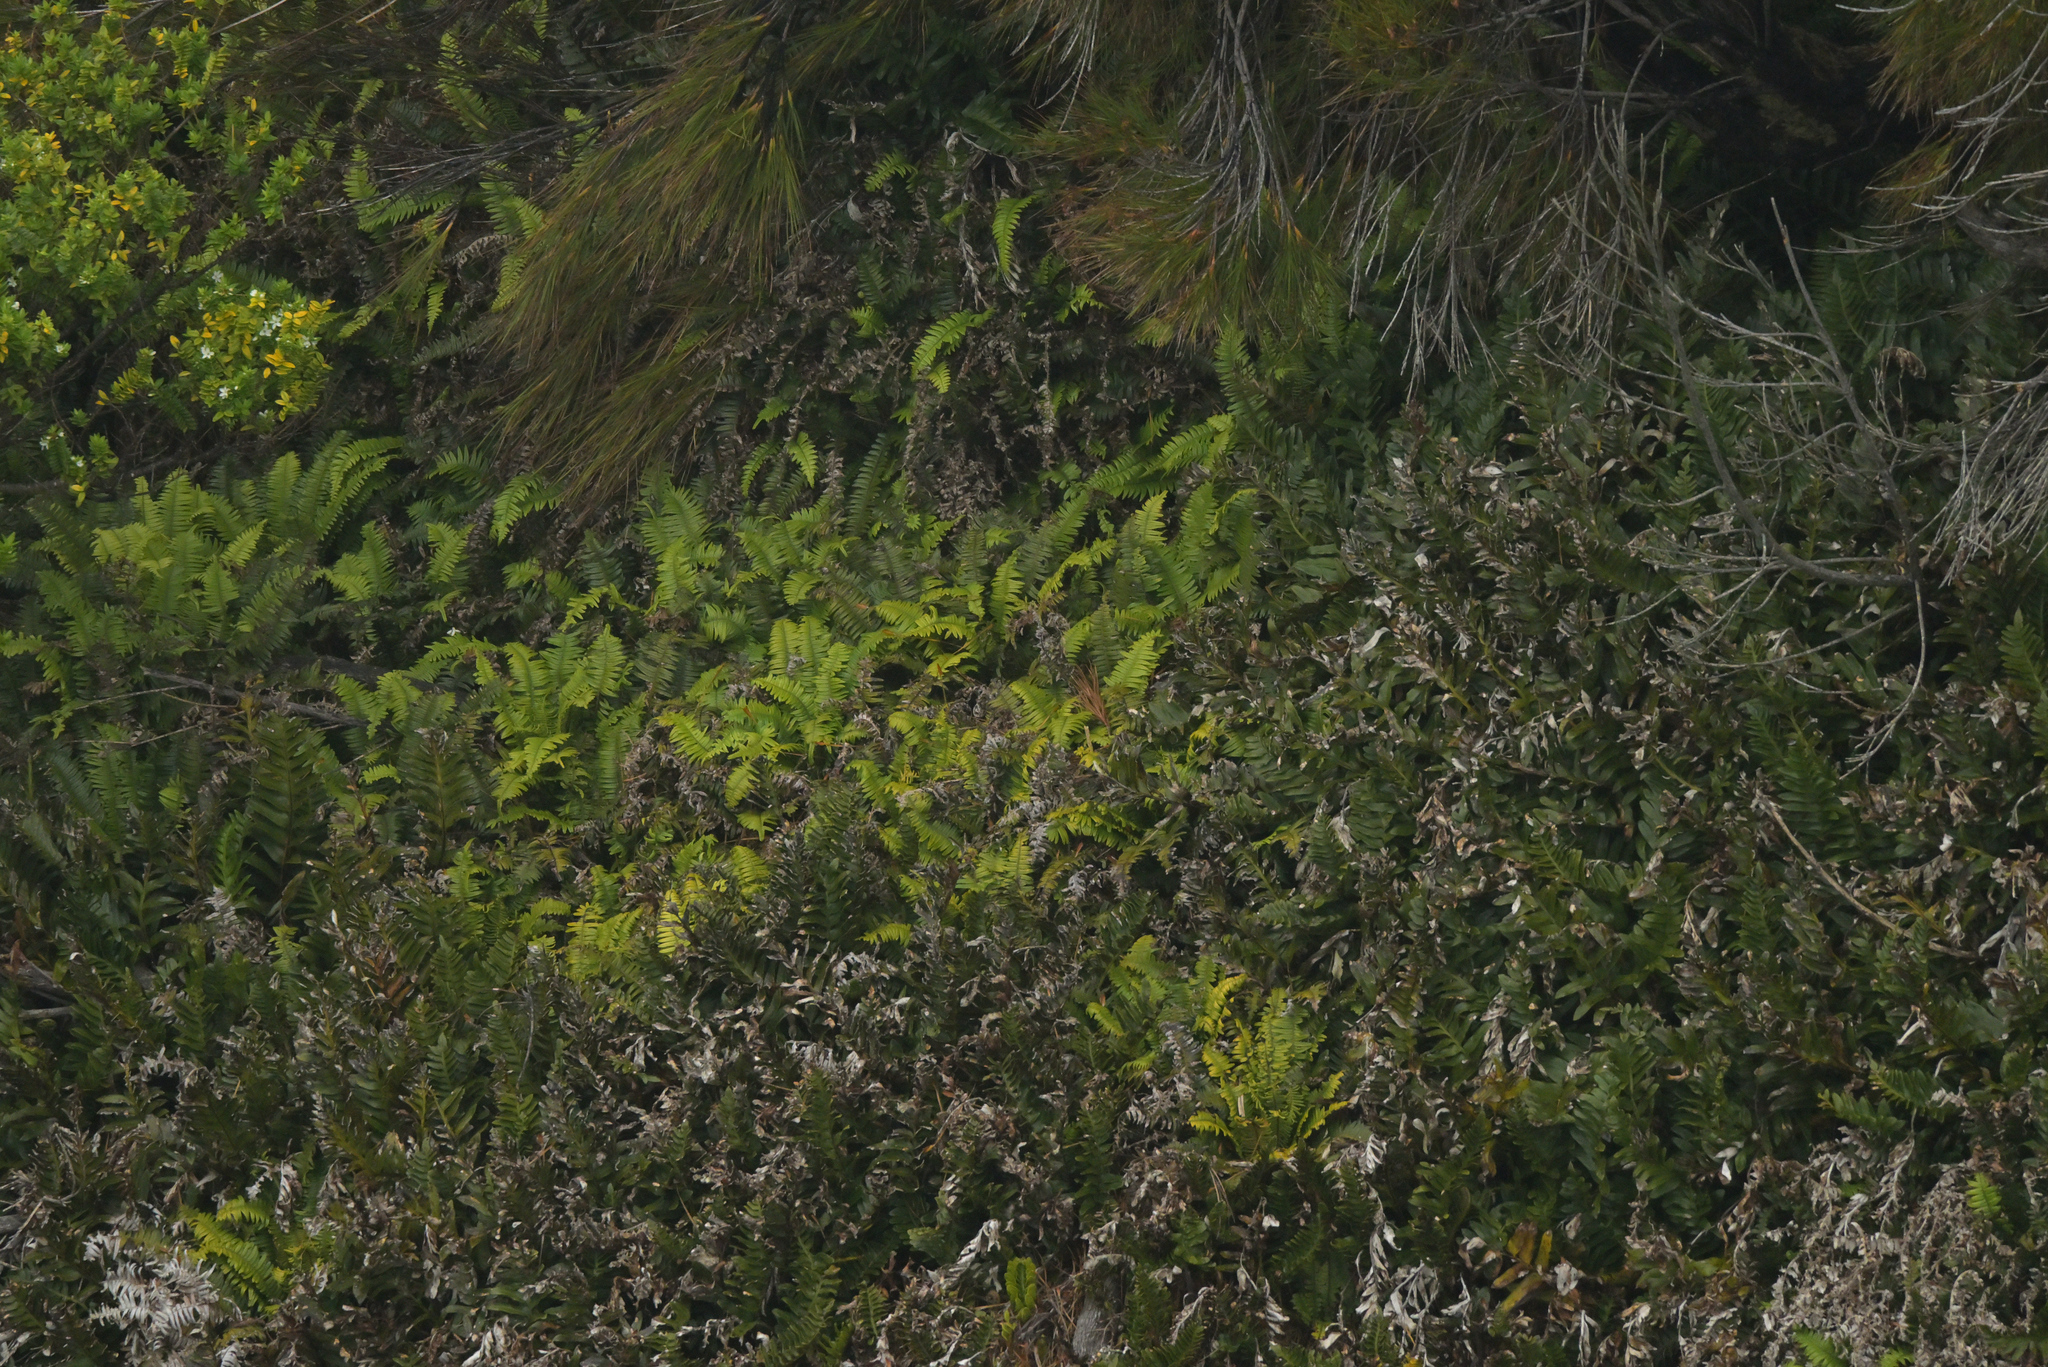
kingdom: Plantae
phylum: Tracheophyta
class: Polypodiopsida
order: Polypodiales
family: Blechnaceae
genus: Austroblechnum
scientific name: Austroblechnum durum
